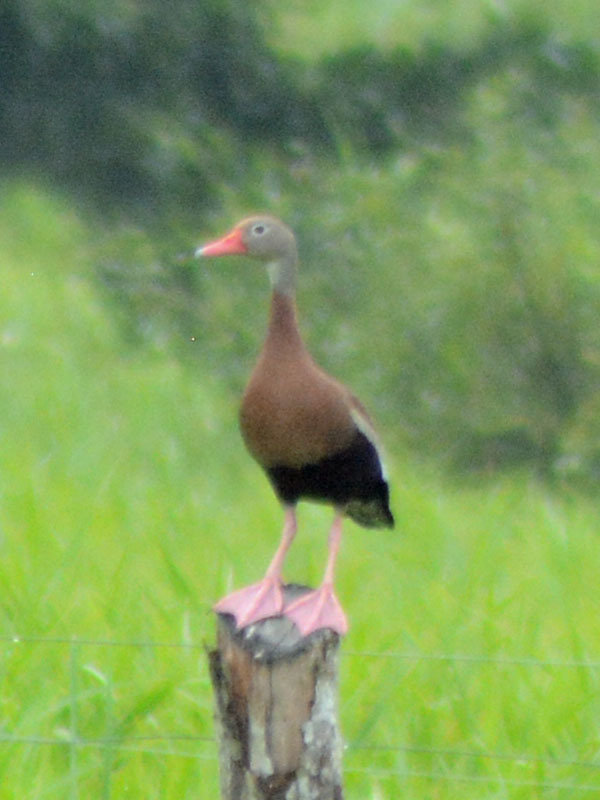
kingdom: Animalia
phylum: Chordata
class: Aves
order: Anseriformes
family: Anatidae
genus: Dendrocygna
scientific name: Dendrocygna autumnalis
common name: Black-bellied whistling duck
